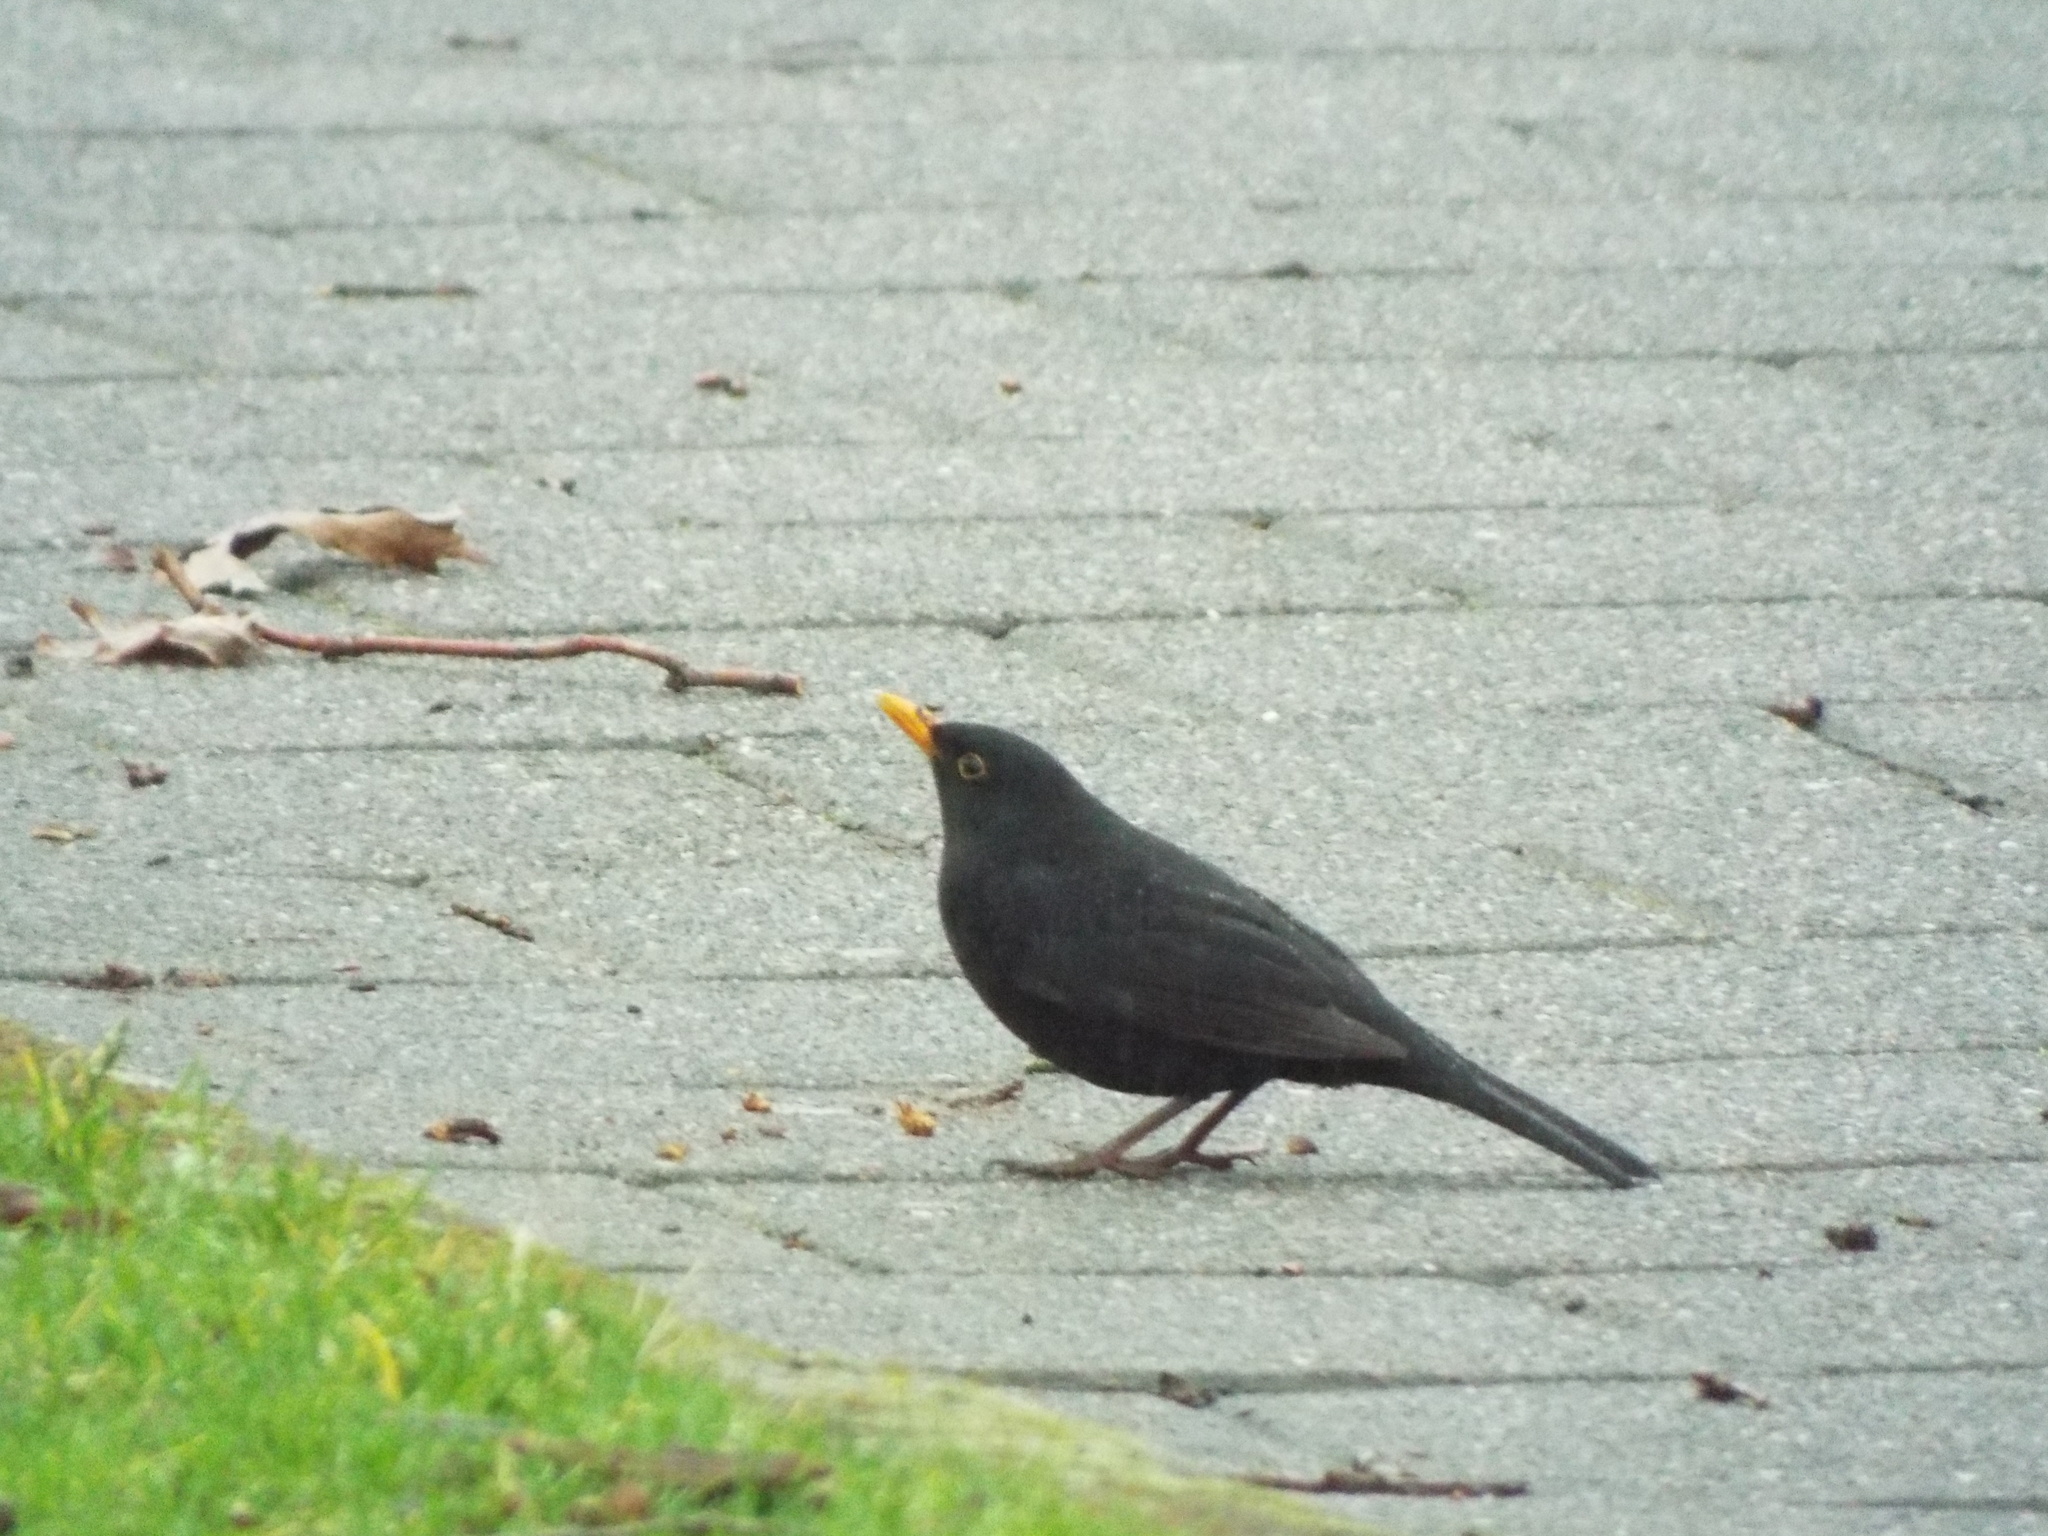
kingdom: Animalia
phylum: Chordata
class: Aves
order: Passeriformes
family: Turdidae
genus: Turdus
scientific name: Turdus merula
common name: Common blackbird
